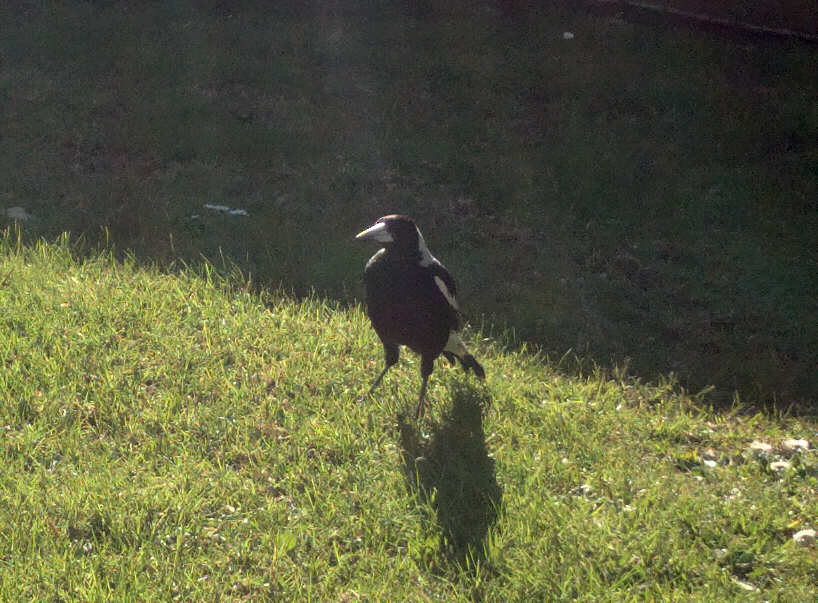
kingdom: Animalia
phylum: Chordata
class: Aves
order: Passeriformes
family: Cracticidae
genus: Gymnorhina
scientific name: Gymnorhina tibicen
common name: Australian magpie
